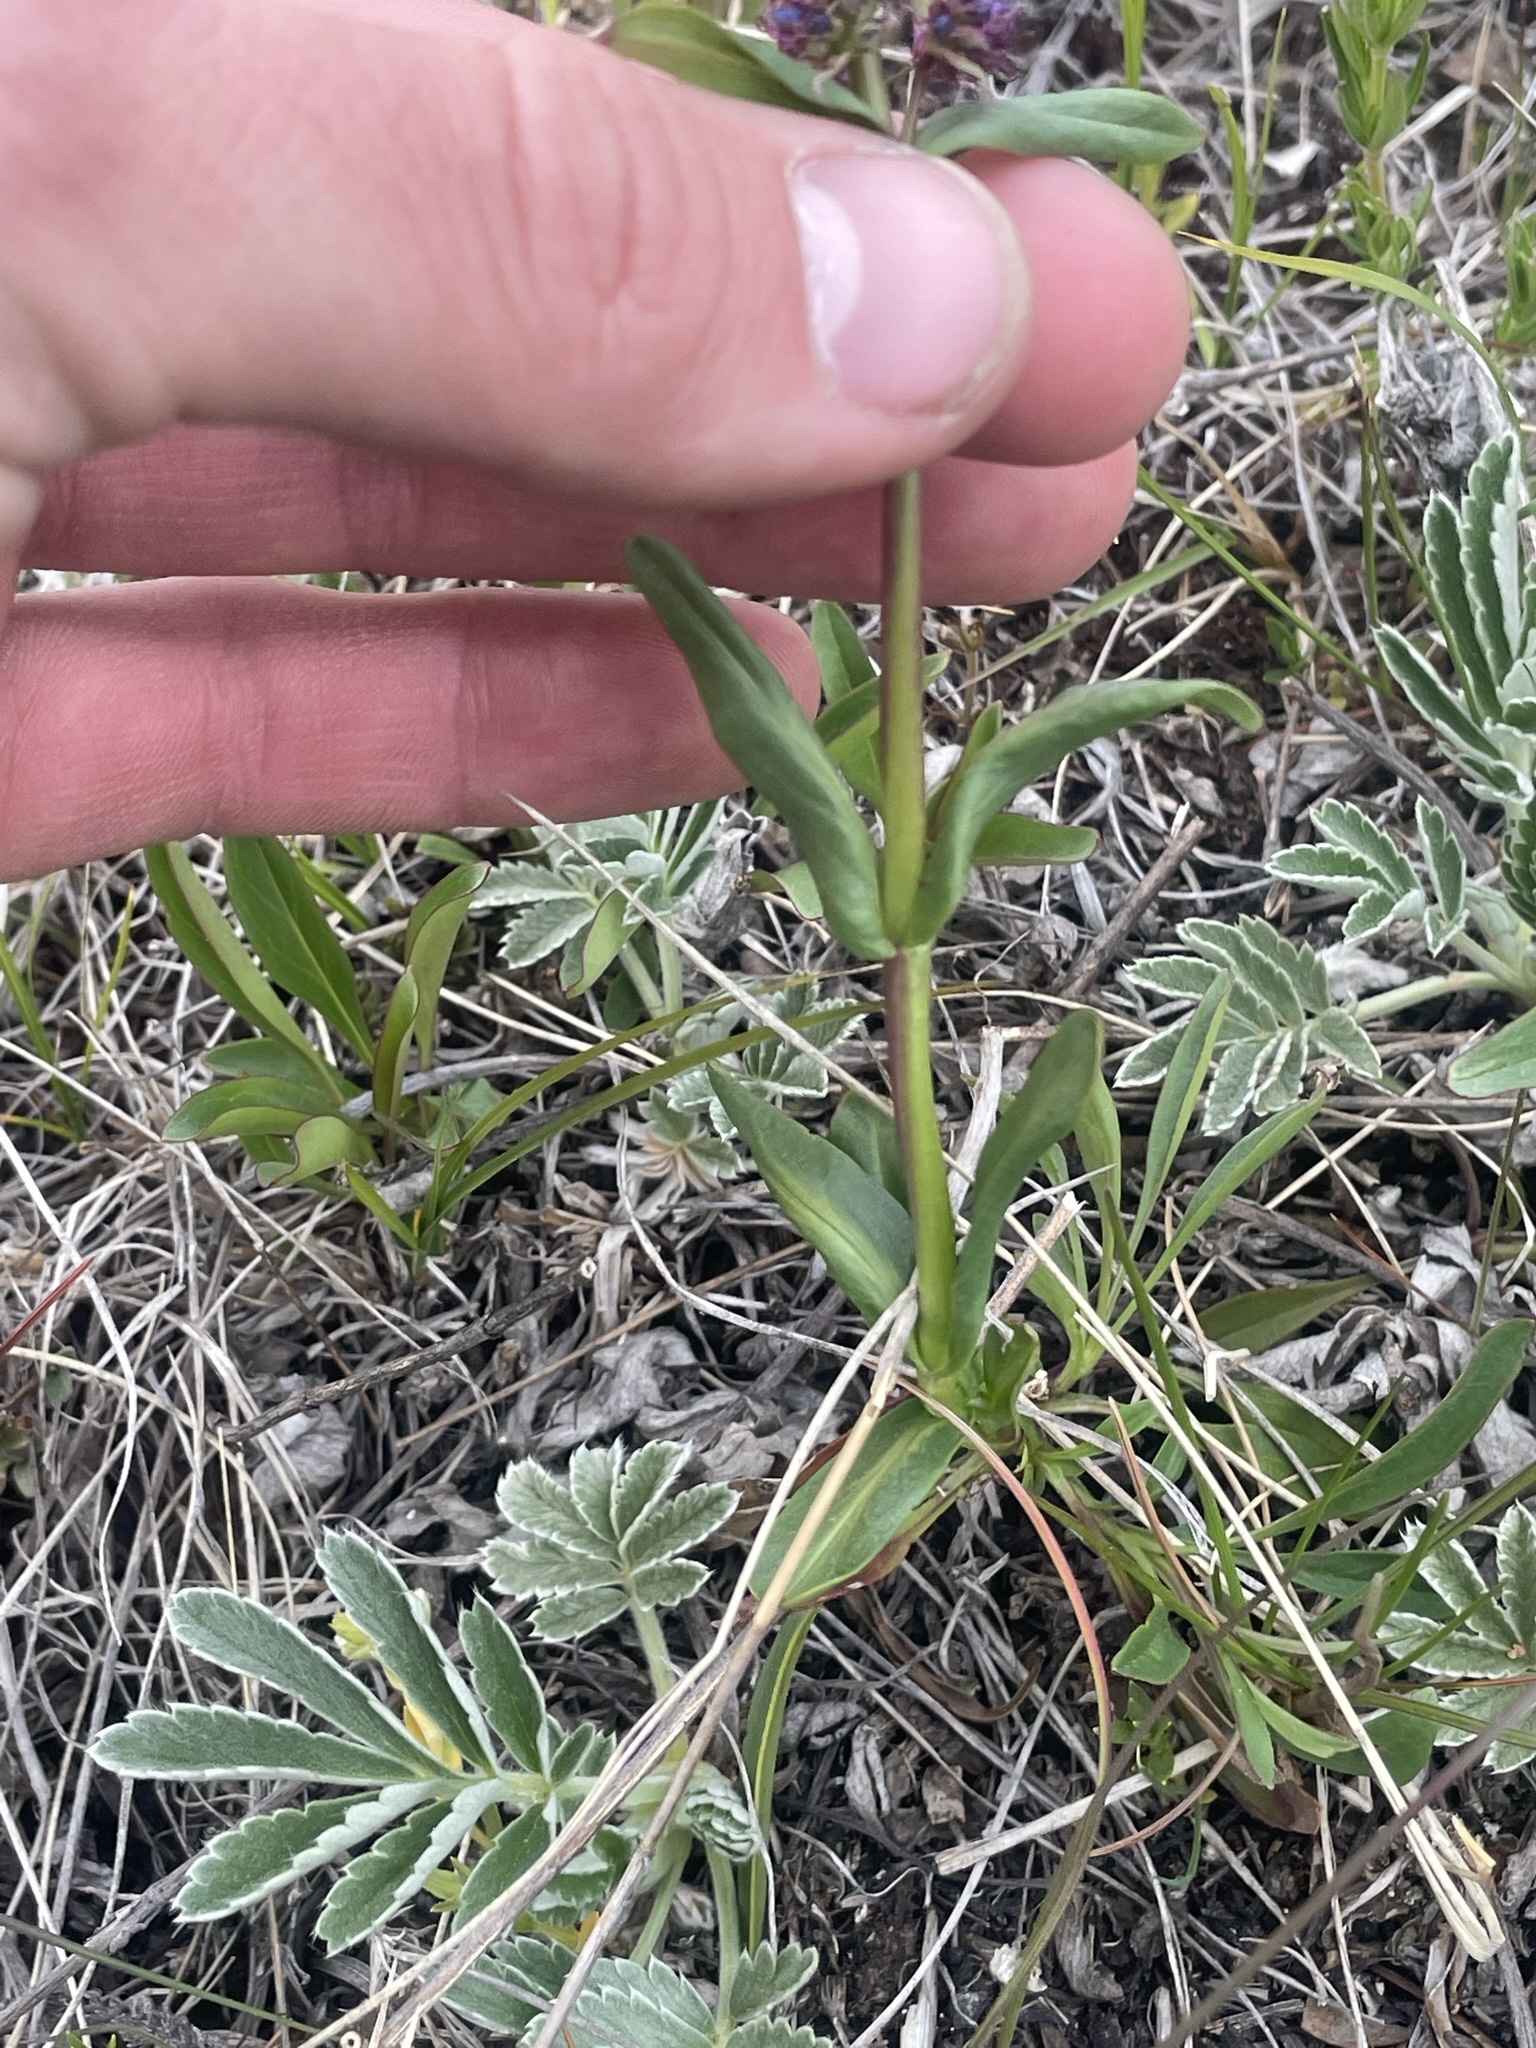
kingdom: Plantae
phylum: Tracheophyta
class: Magnoliopsida
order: Lamiales
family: Plantaginaceae
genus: Penstemon
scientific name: Penstemon procerus
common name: Small-flower penstemon
